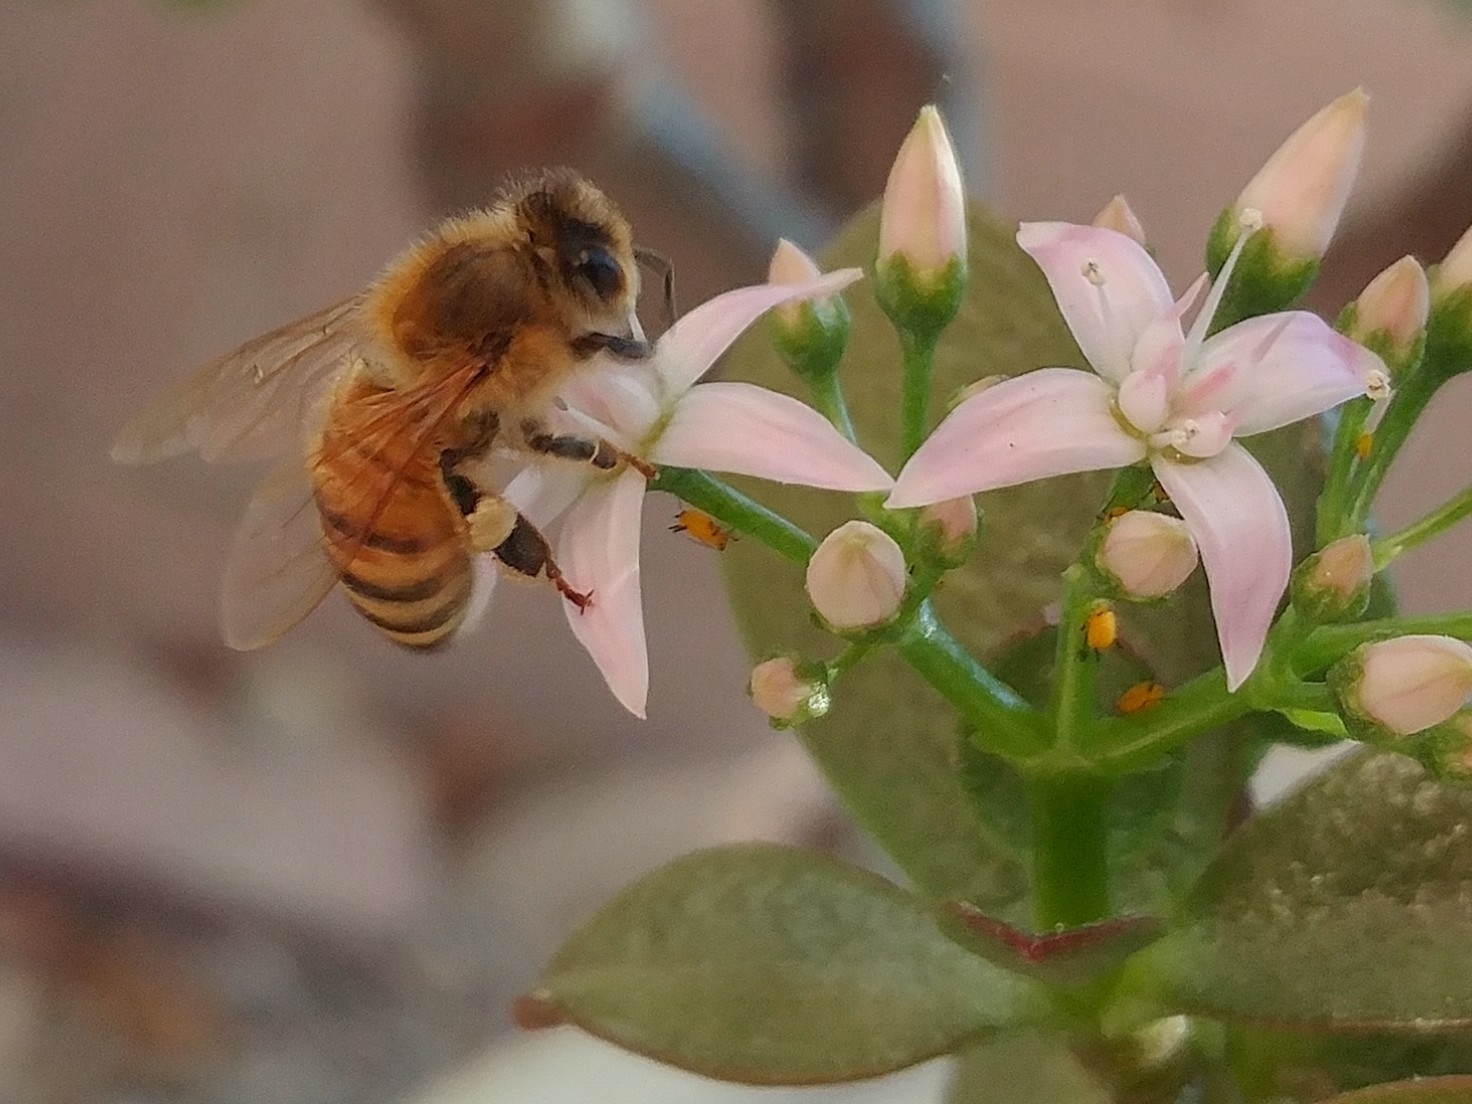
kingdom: Animalia
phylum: Arthropoda
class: Insecta
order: Hymenoptera
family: Apidae
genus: Apis
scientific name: Apis mellifera
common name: Honey bee
